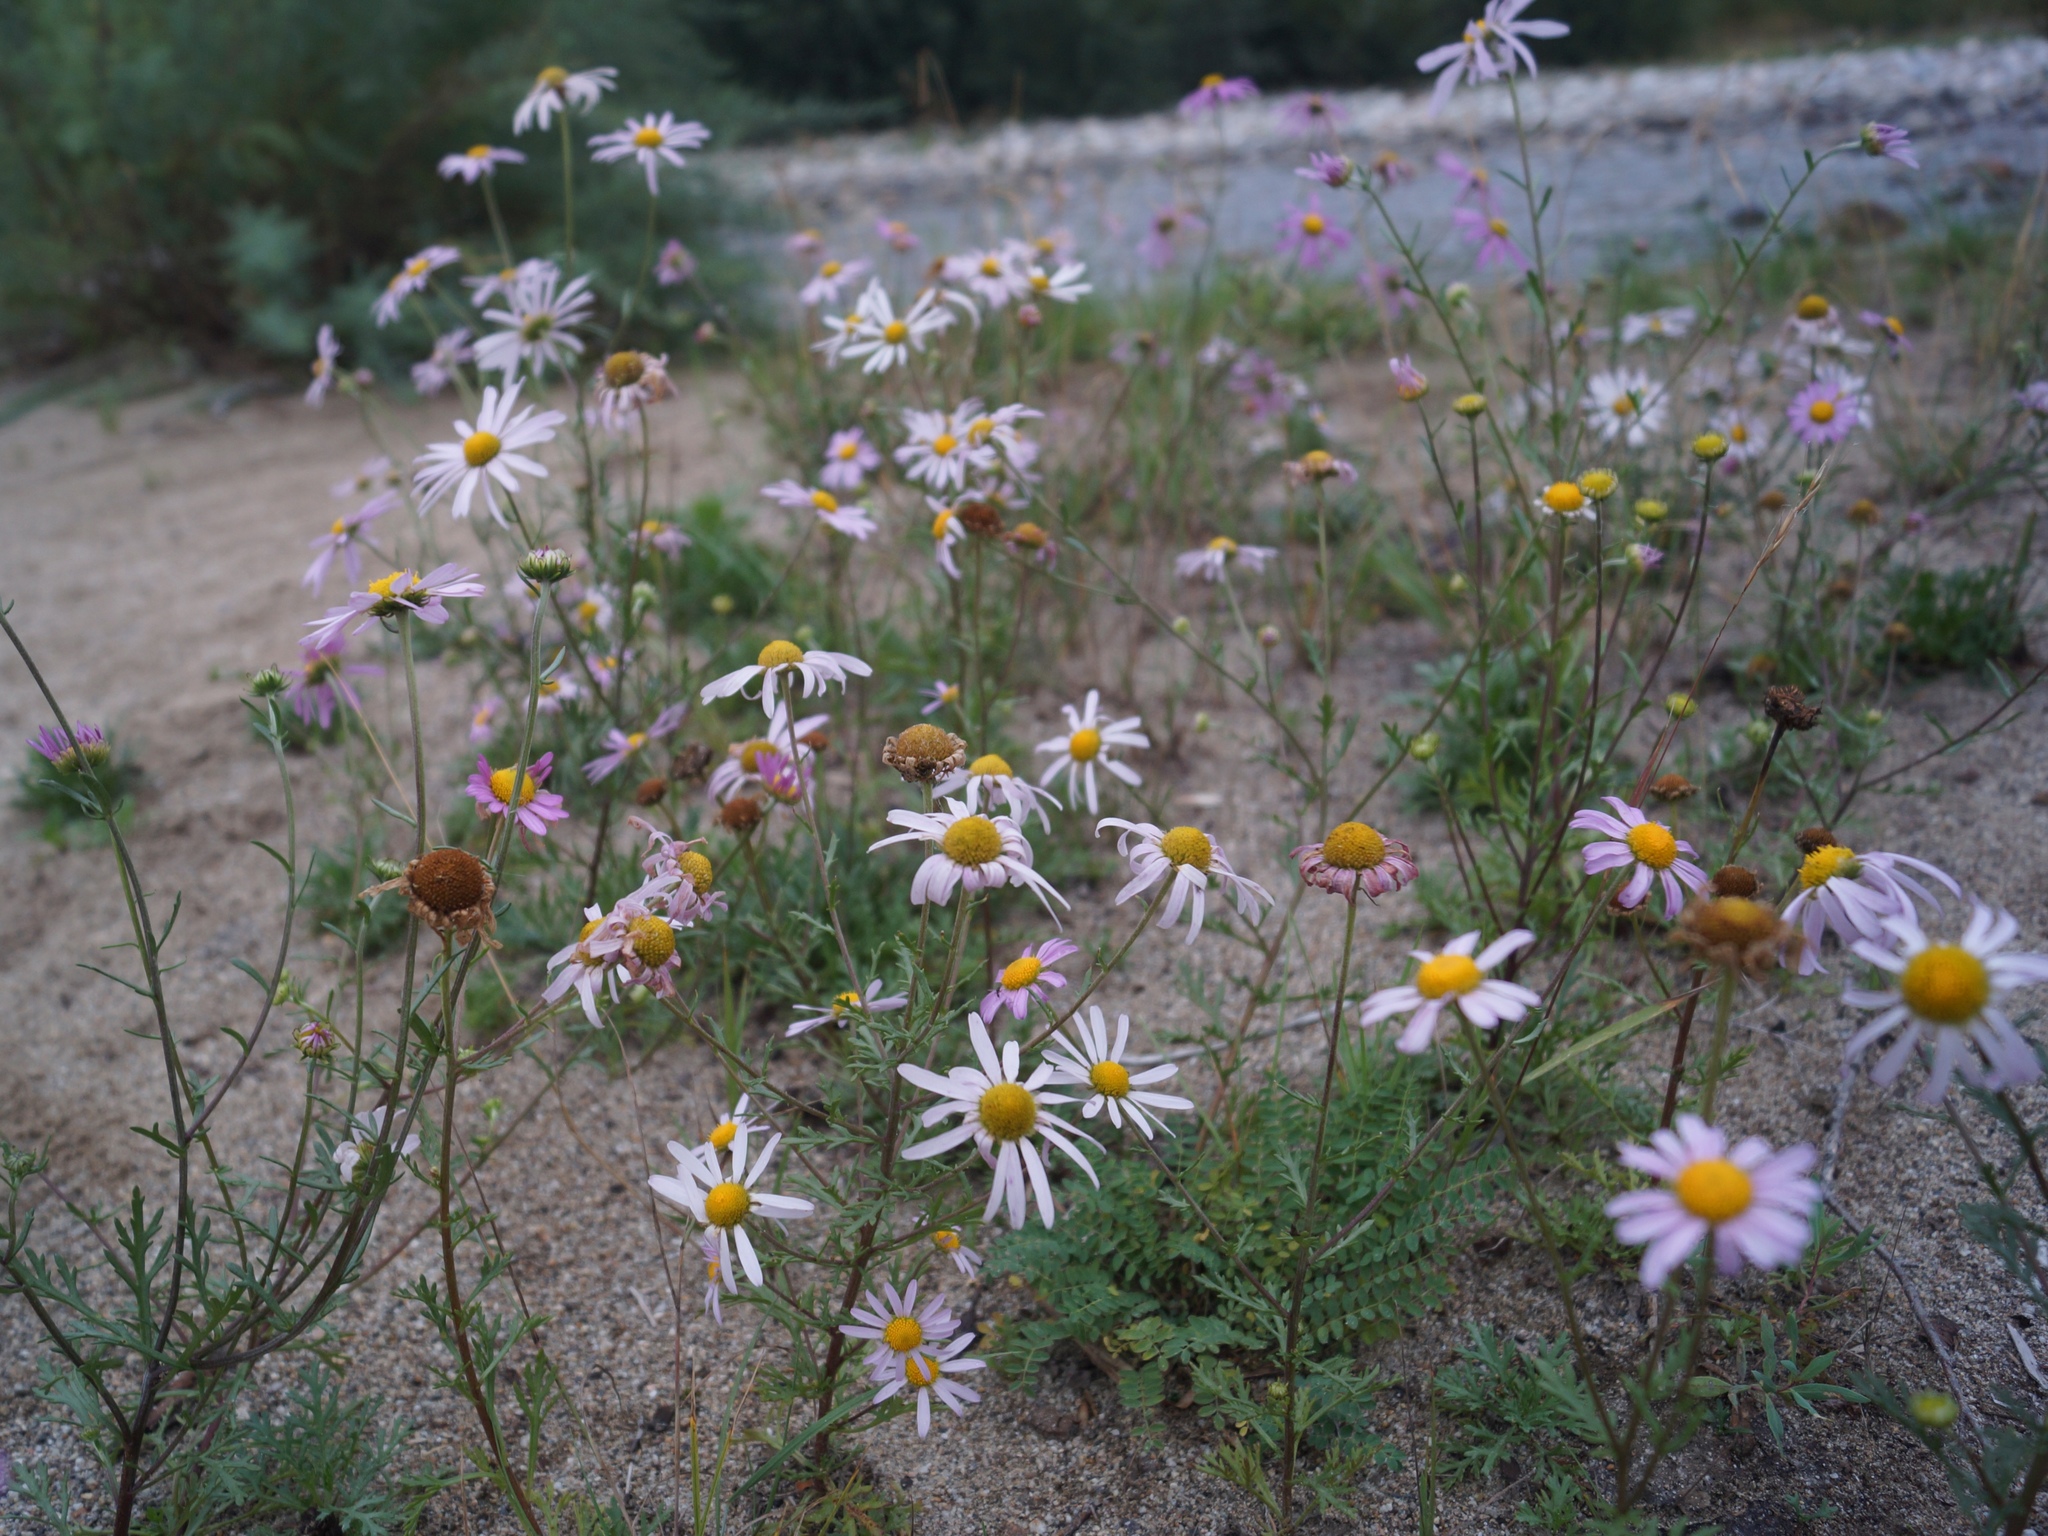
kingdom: Plantae
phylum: Tracheophyta
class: Magnoliopsida
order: Asterales
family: Asteraceae
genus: Chrysanthemum
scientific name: Chrysanthemum zawadzkii
